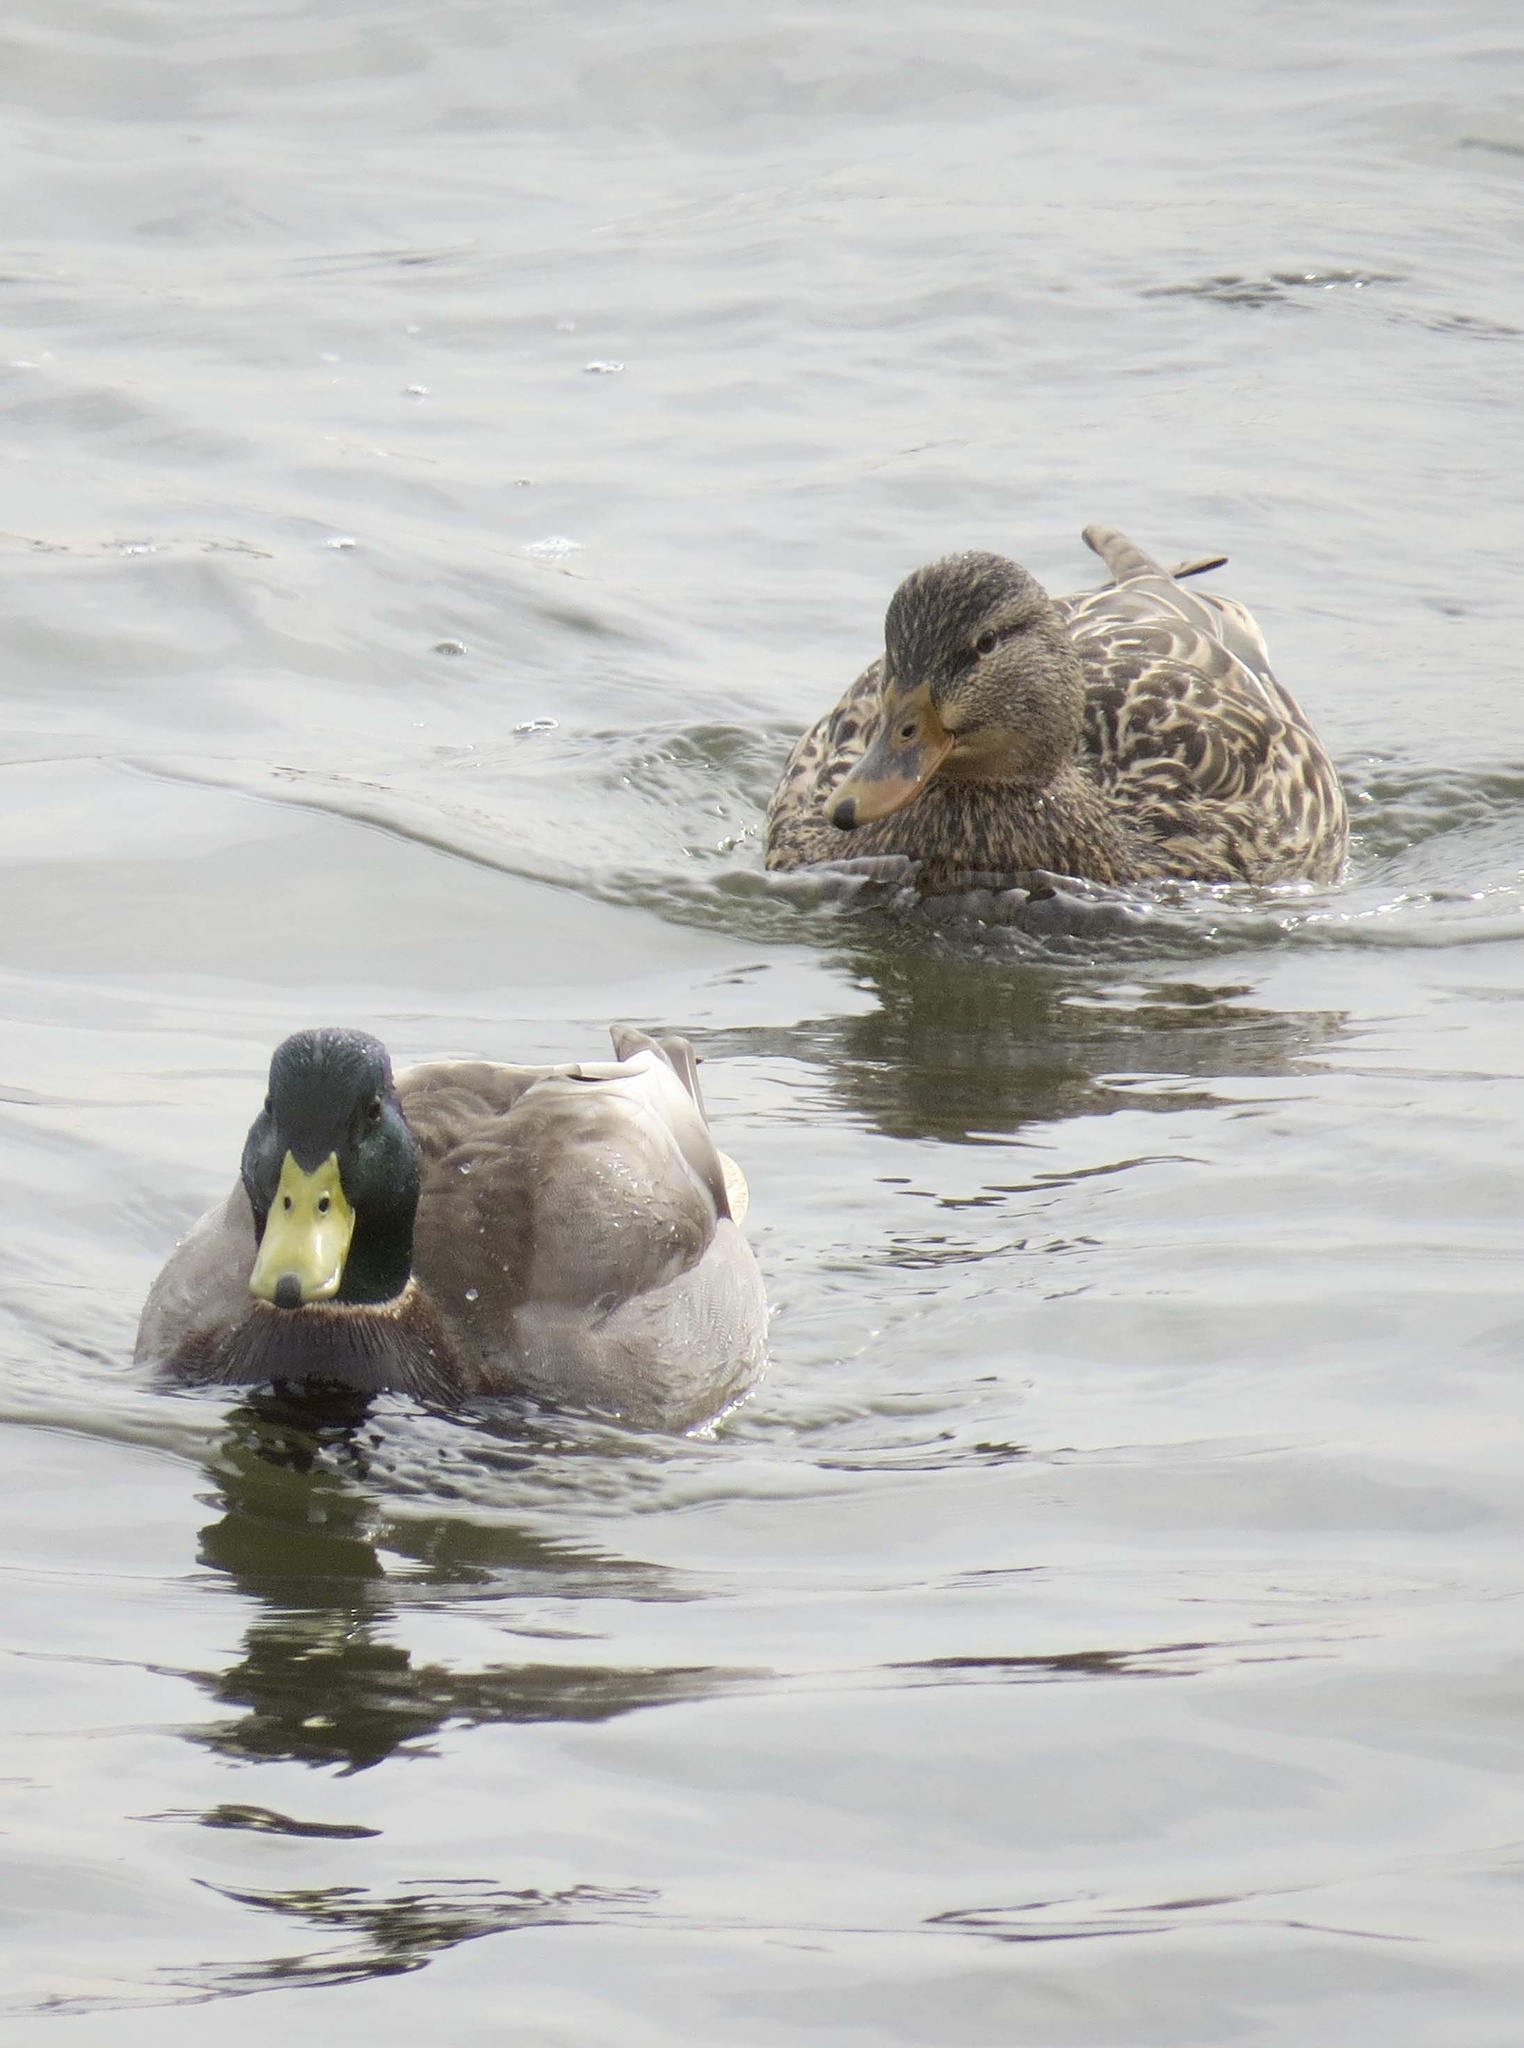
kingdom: Animalia
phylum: Chordata
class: Aves
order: Anseriformes
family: Anatidae
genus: Anas
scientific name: Anas platyrhynchos
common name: Mallard
